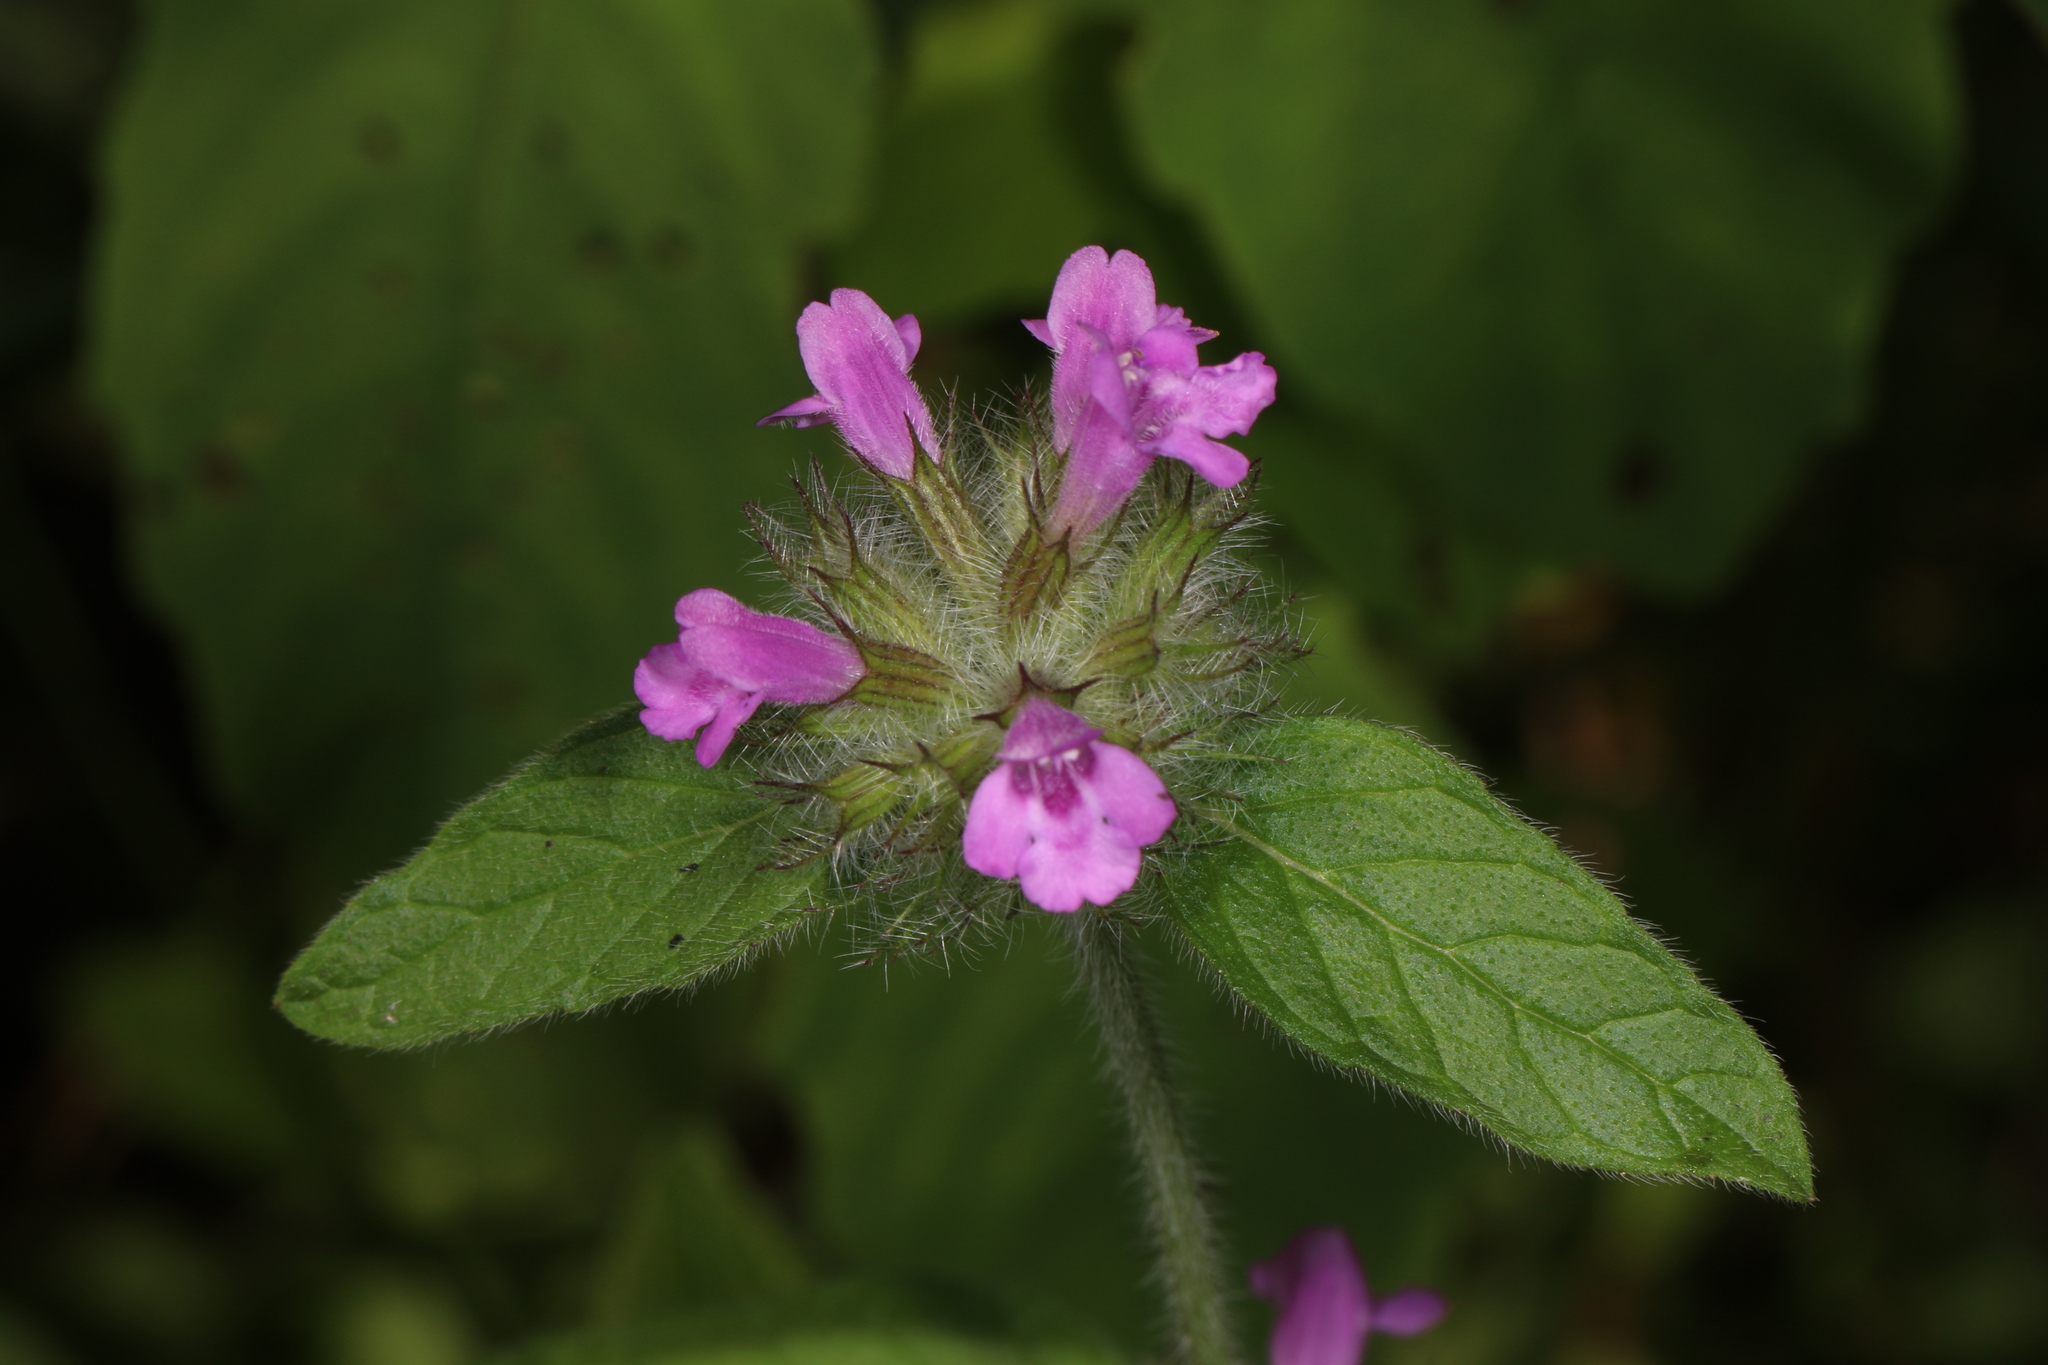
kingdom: Plantae
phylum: Tracheophyta
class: Magnoliopsida
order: Lamiales
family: Lamiaceae
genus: Clinopodium
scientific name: Clinopodium vulgare
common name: Wild basil
